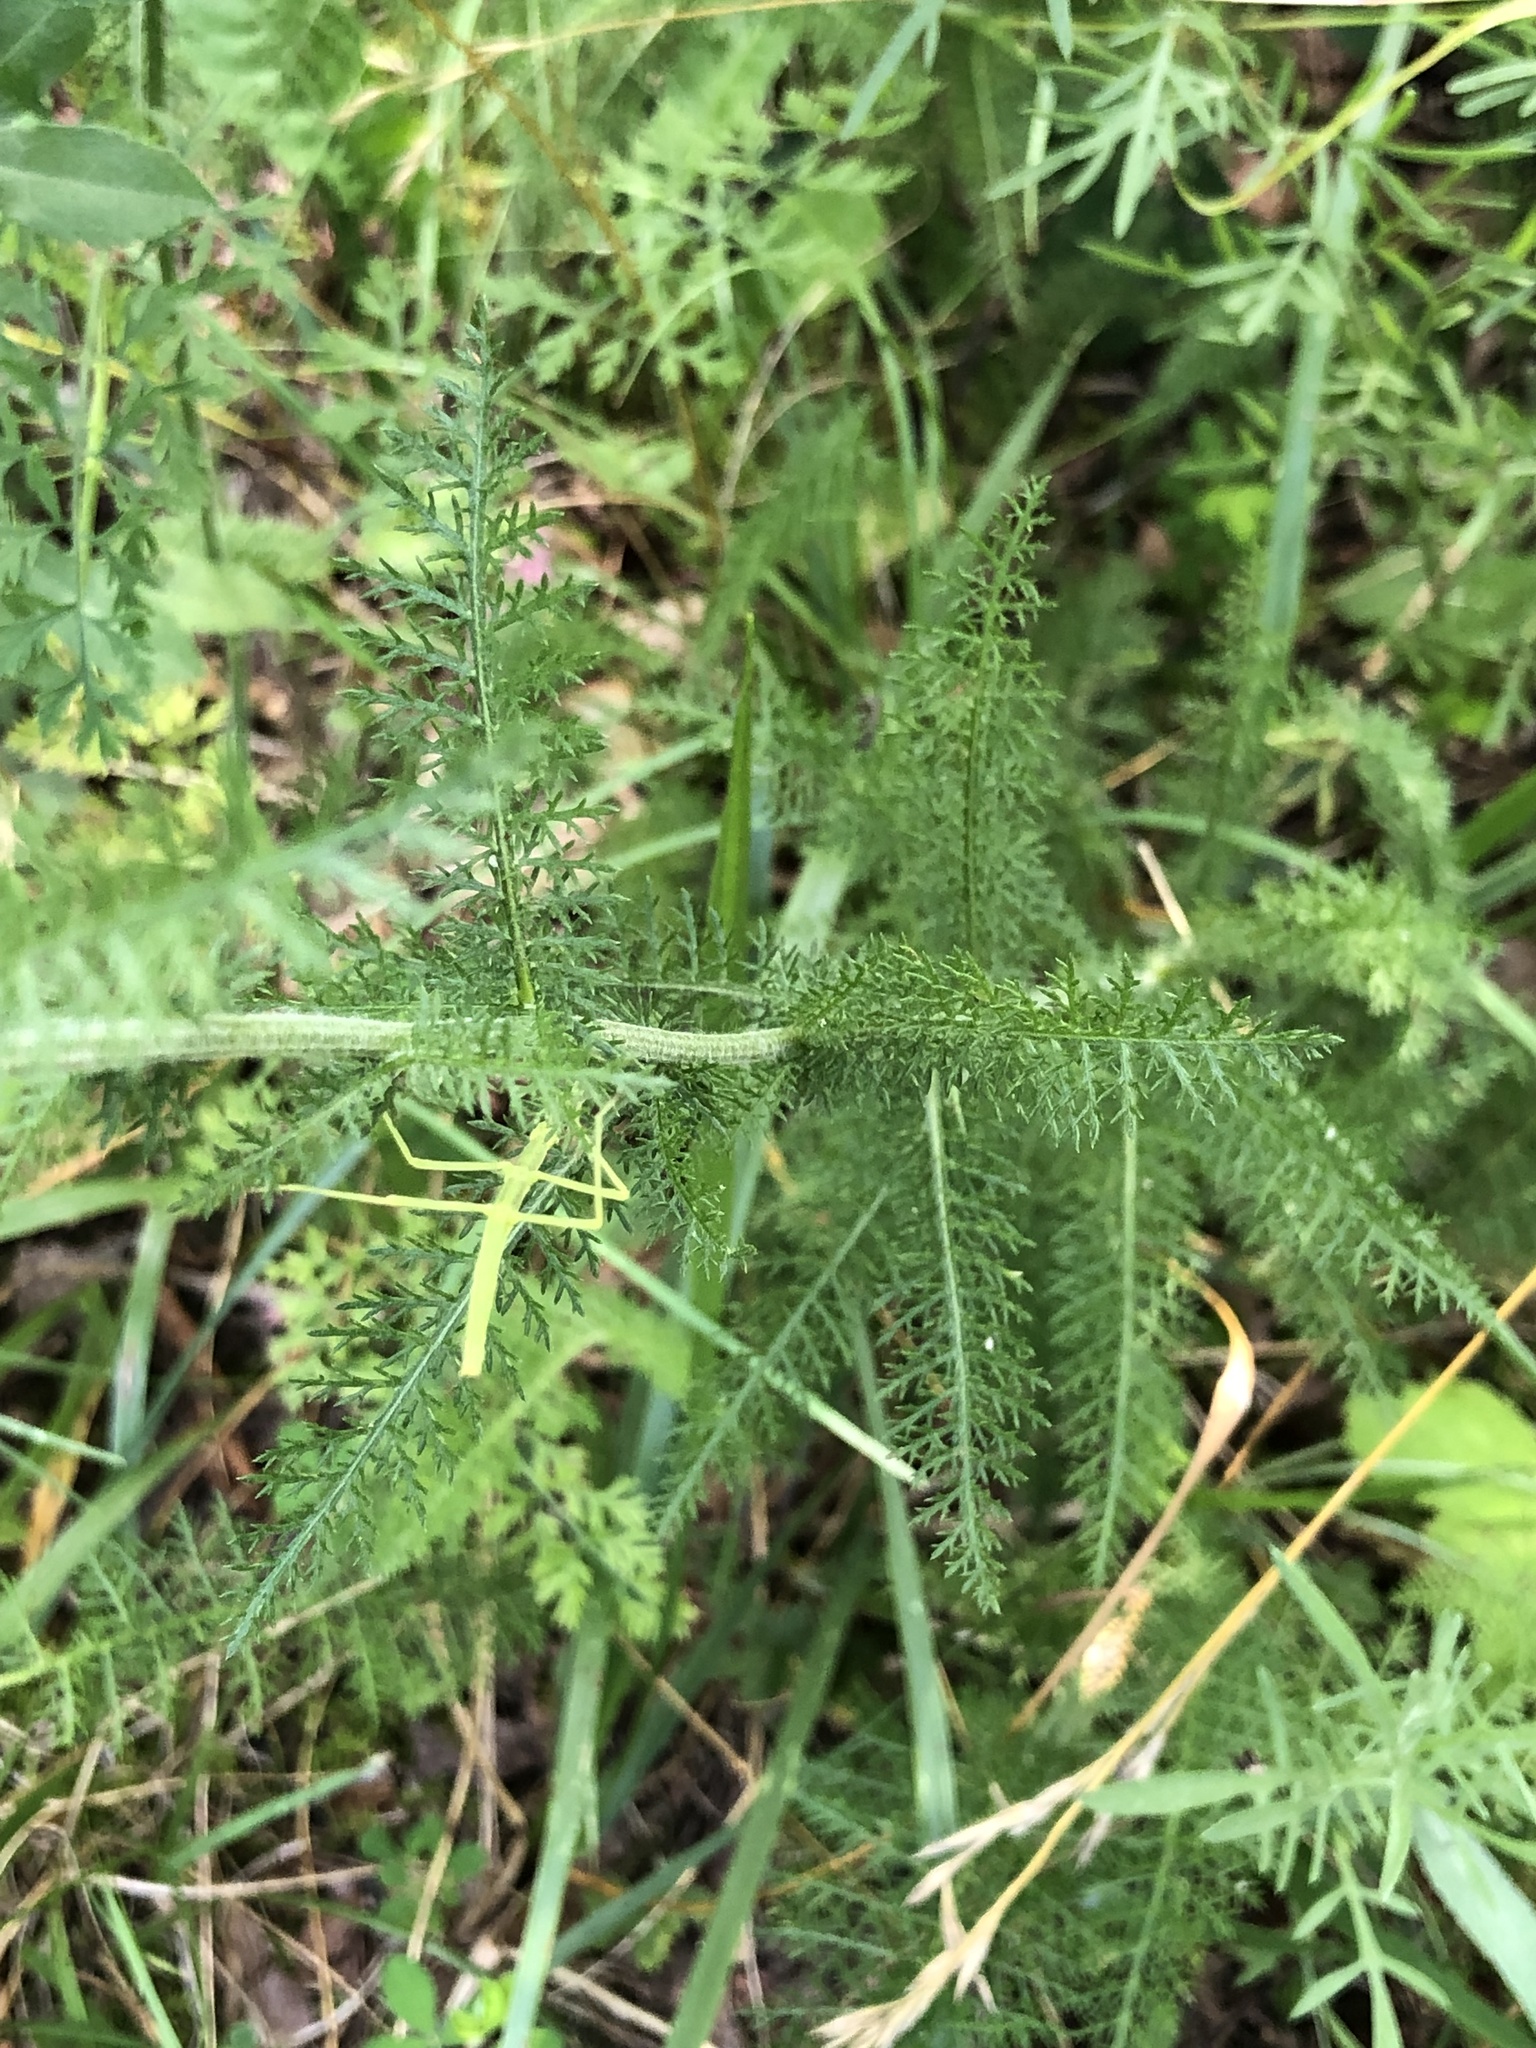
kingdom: Plantae
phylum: Tracheophyta
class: Magnoliopsida
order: Asterales
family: Asteraceae
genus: Achillea
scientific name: Achillea millefolium
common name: Yarrow
